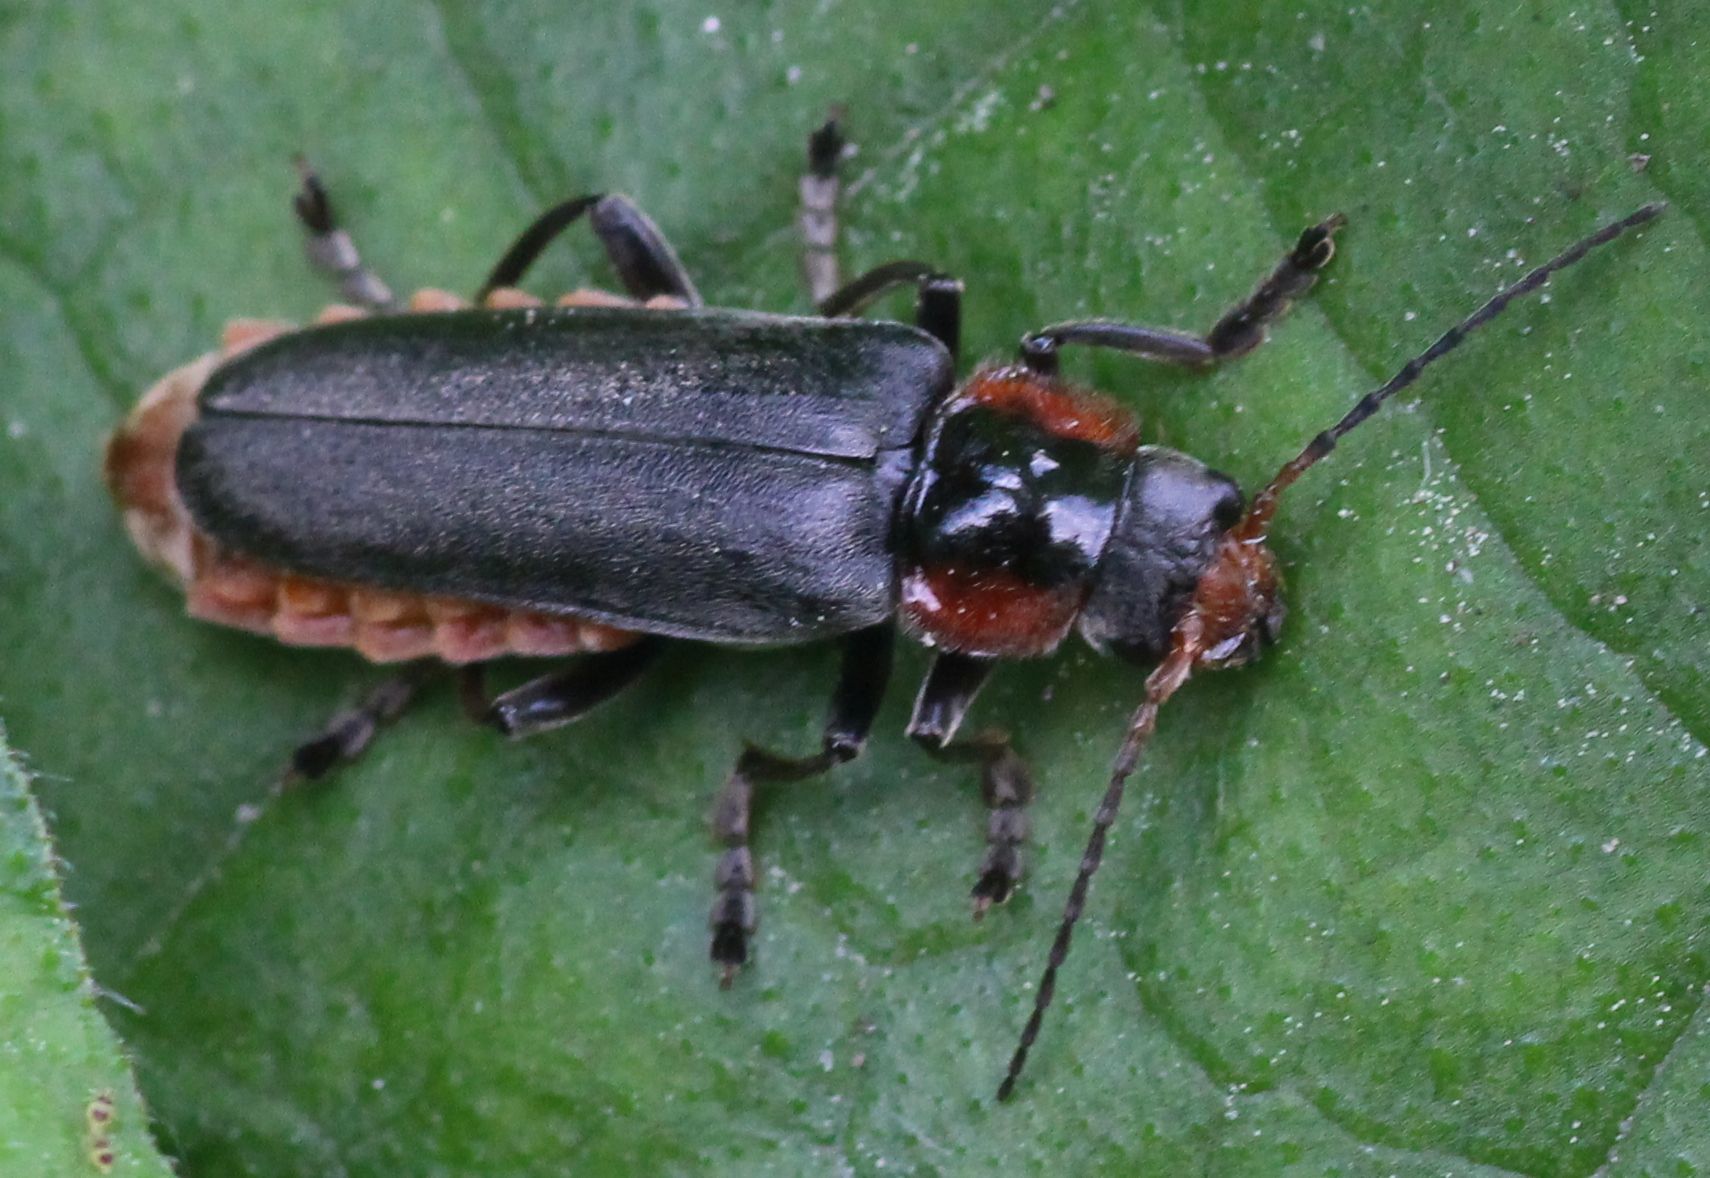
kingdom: Animalia
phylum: Arthropoda
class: Insecta
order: Coleoptera
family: Cantharidae
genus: Cantharis
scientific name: Cantharis fusca
